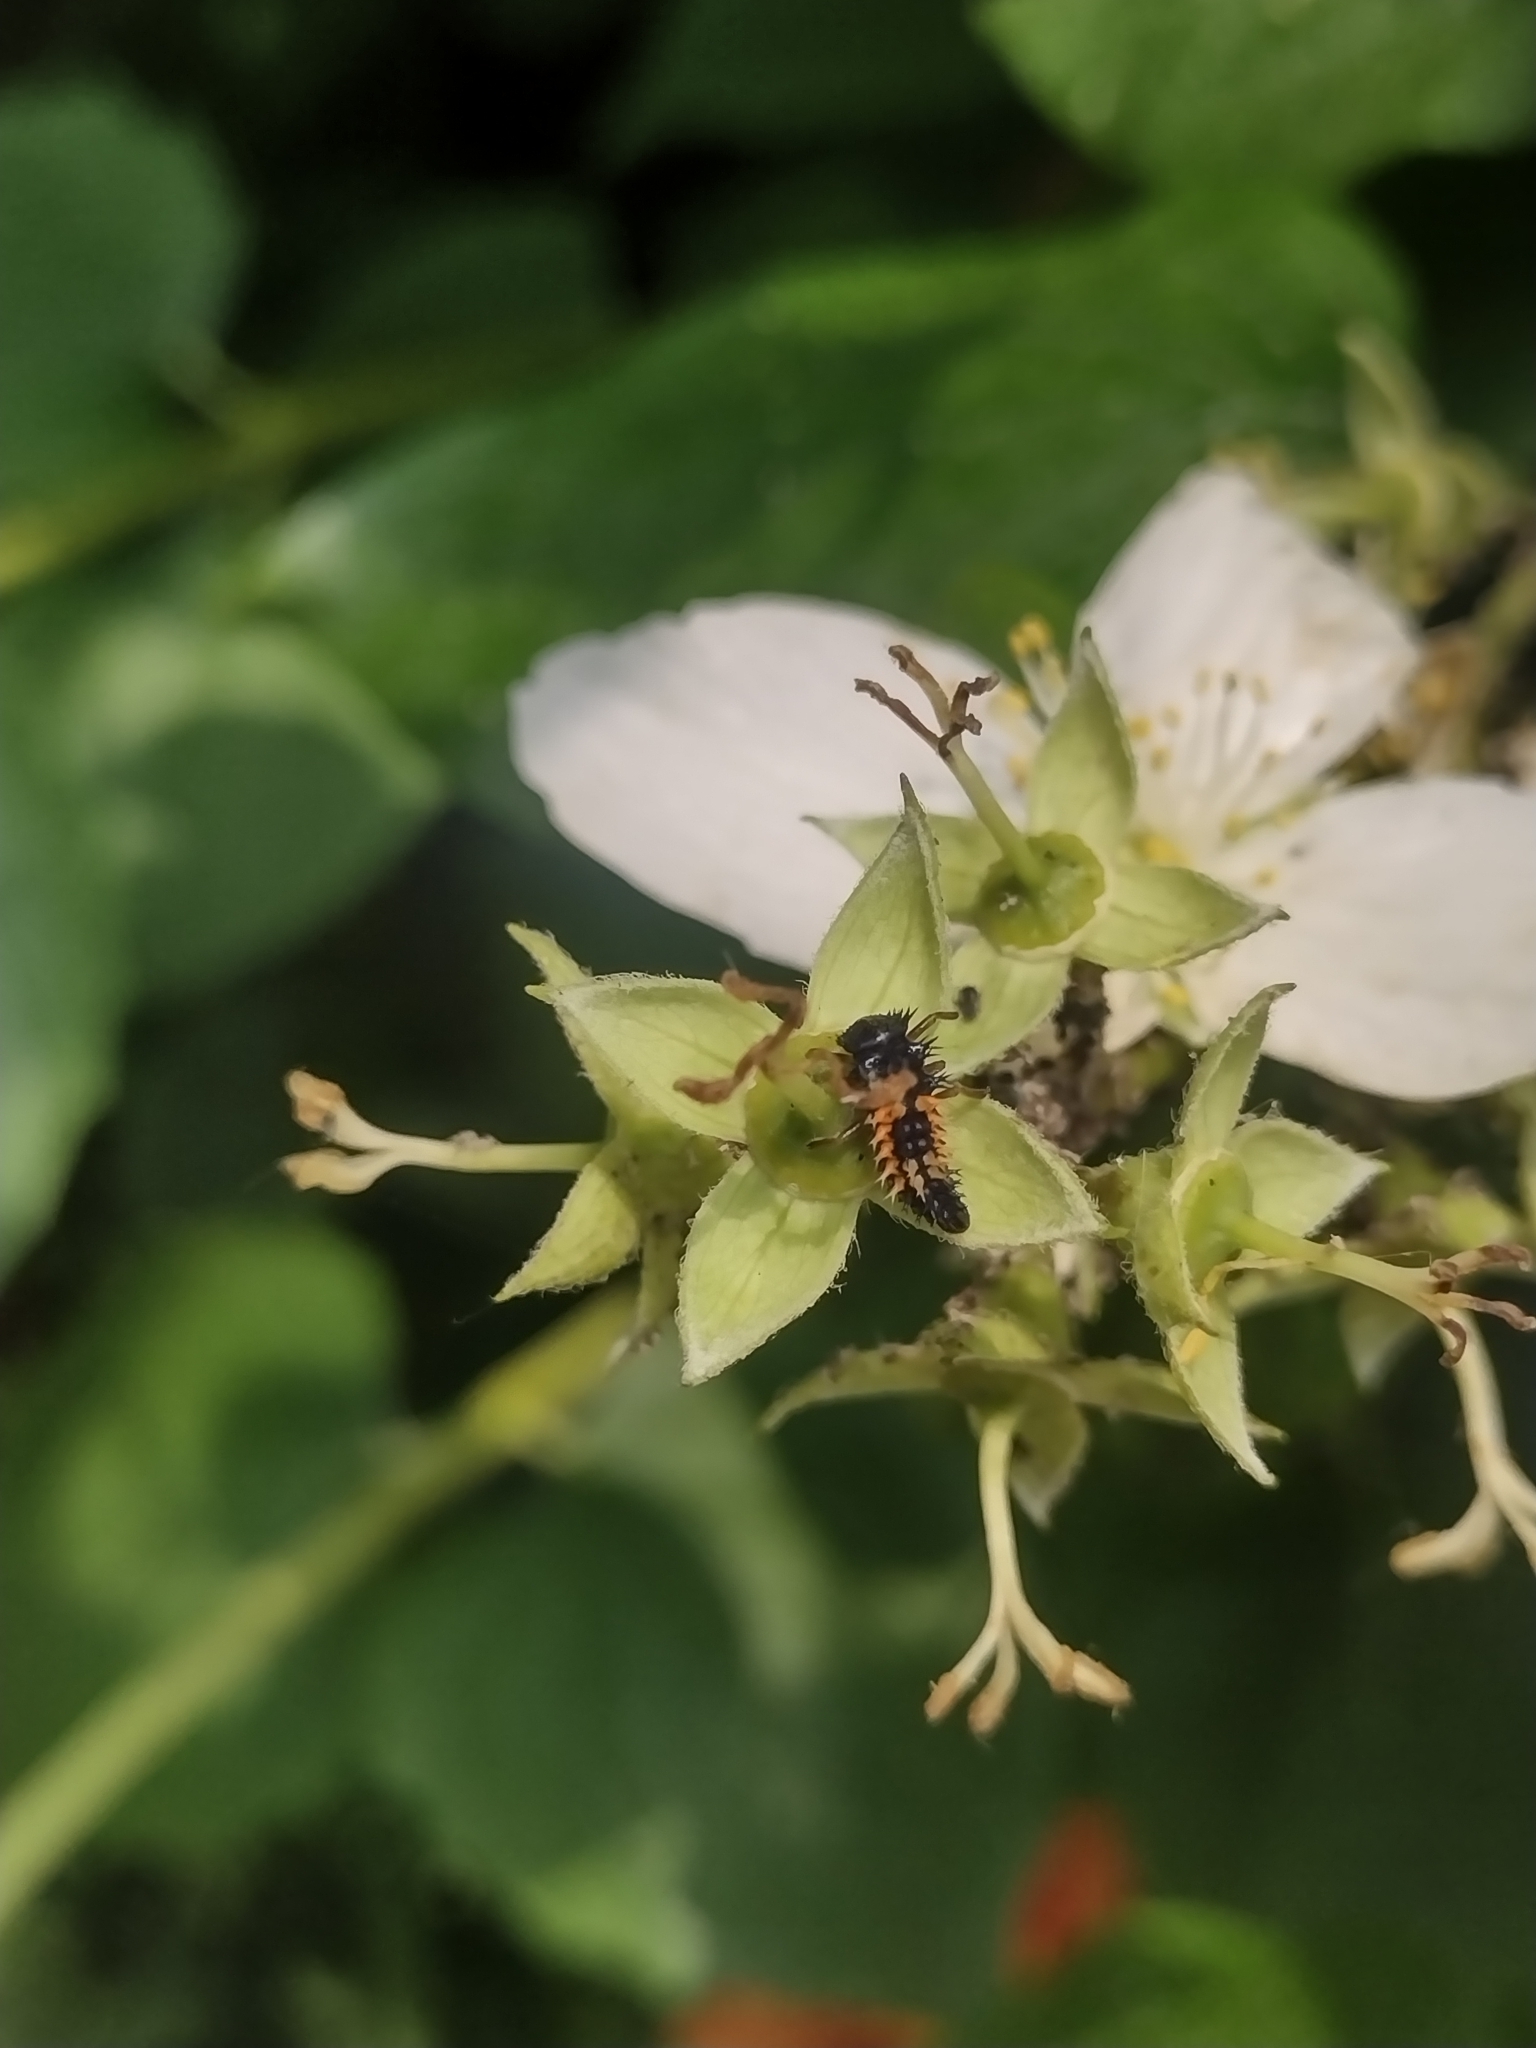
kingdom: Animalia
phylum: Arthropoda
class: Insecta
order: Coleoptera
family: Coccinellidae
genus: Harmonia
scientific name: Harmonia axyridis
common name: Harlequin ladybird
